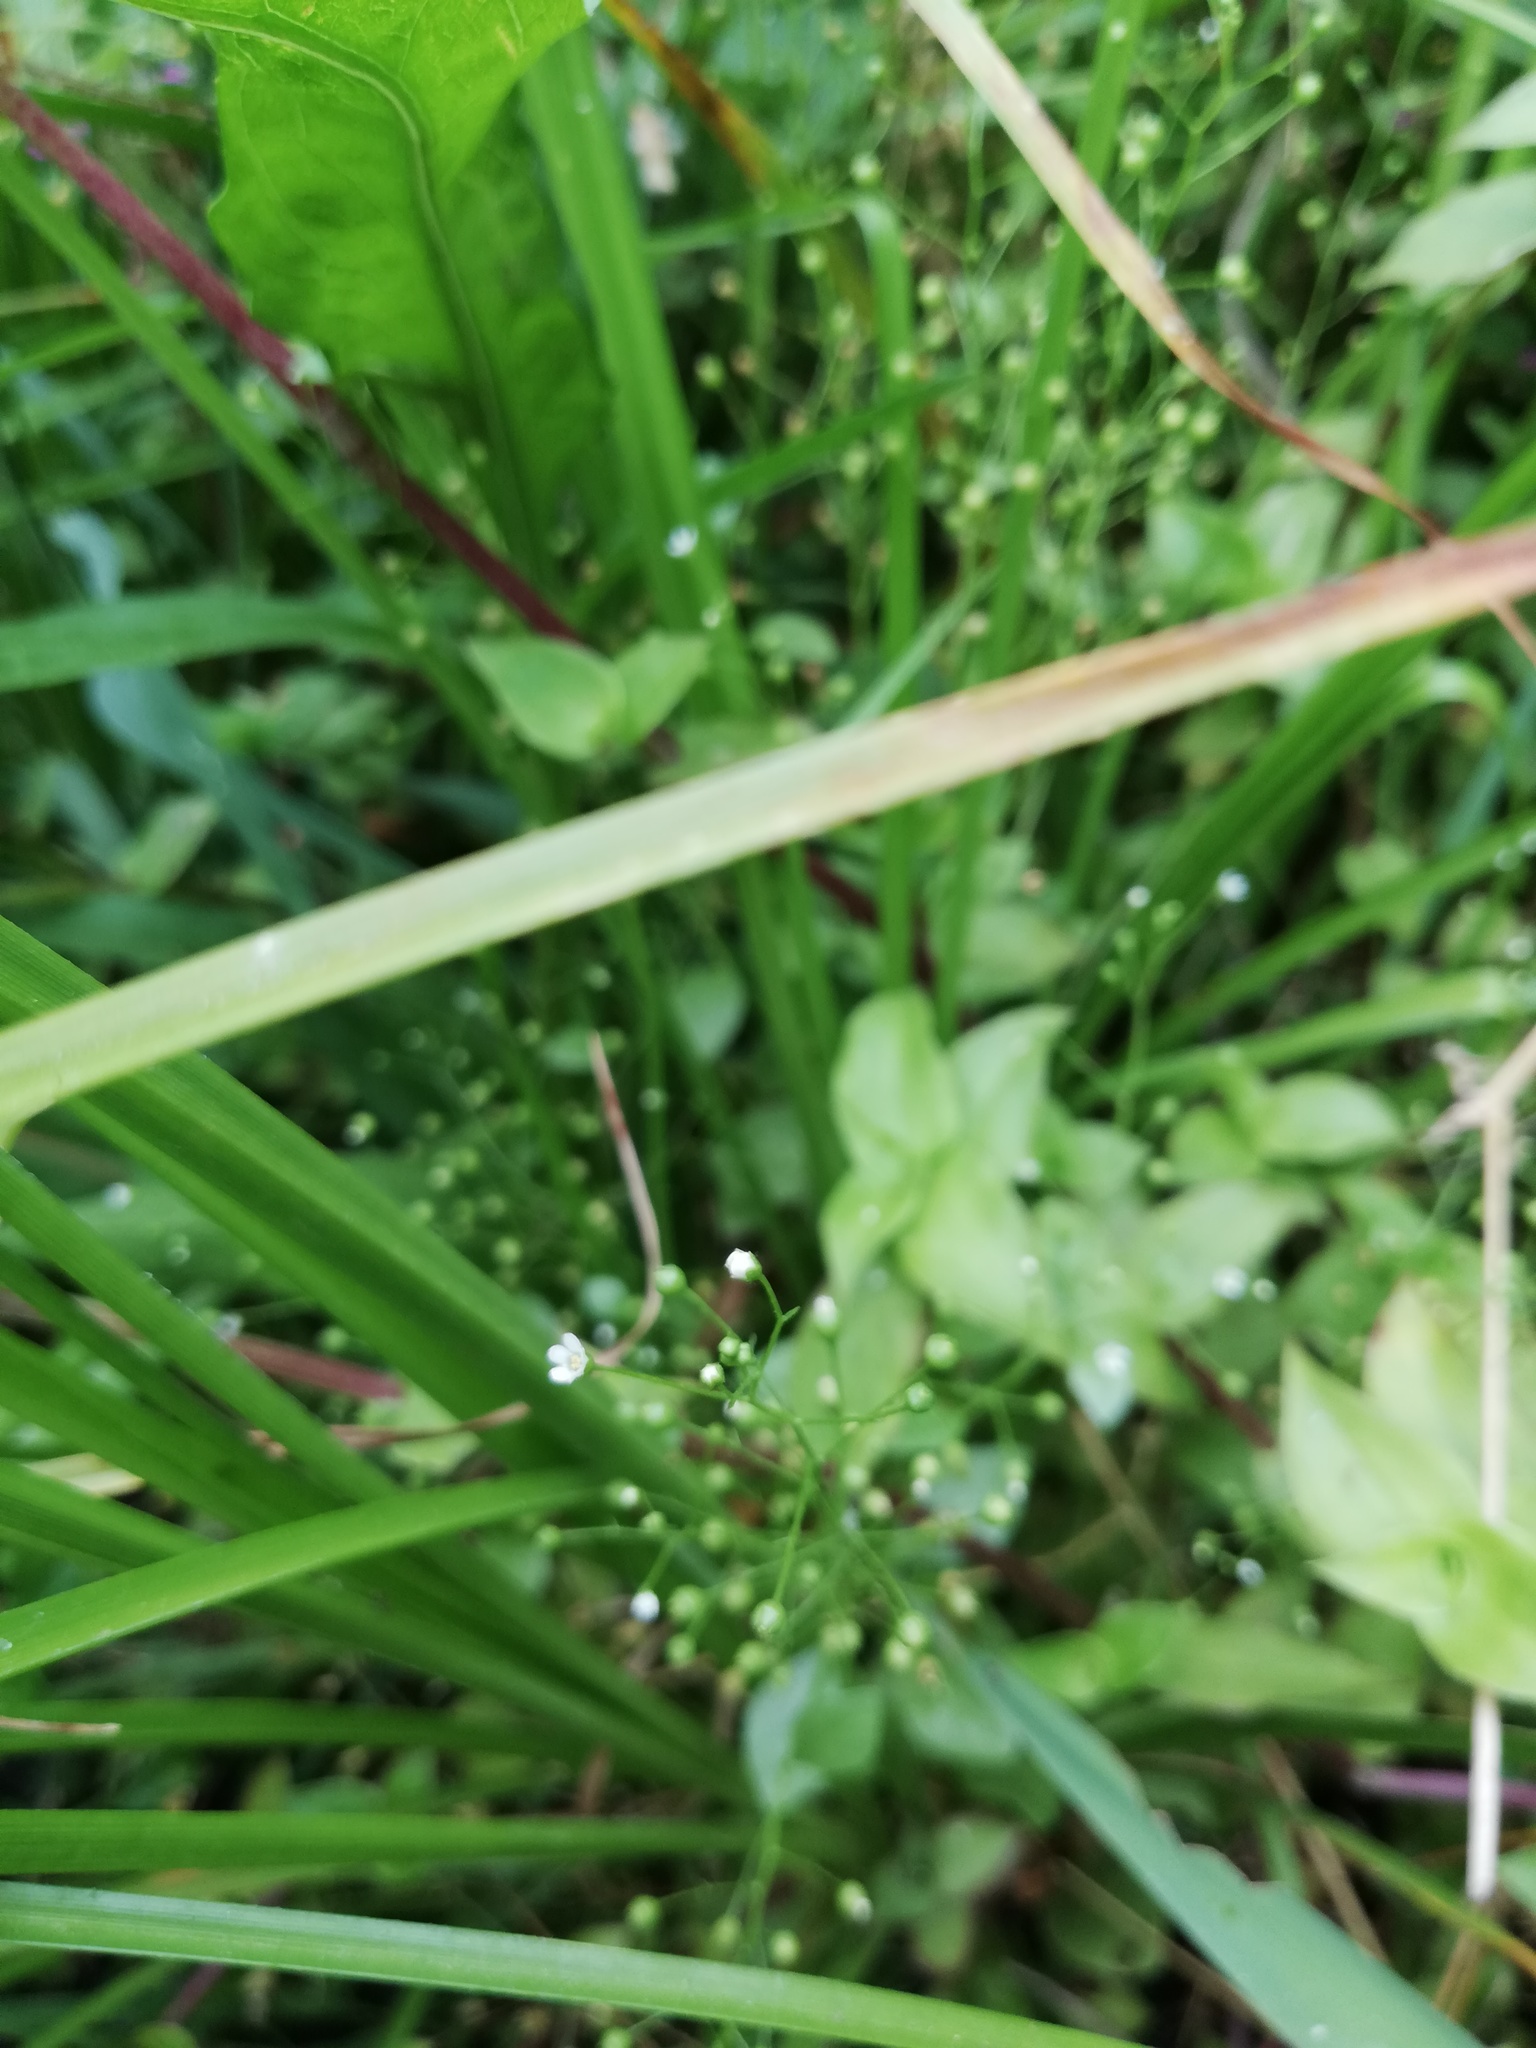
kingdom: Plantae
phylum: Tracheophyta
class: Magnoliopsida
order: Ericales
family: Primulaceae
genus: Samolus
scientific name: Samolus ebracteatus
